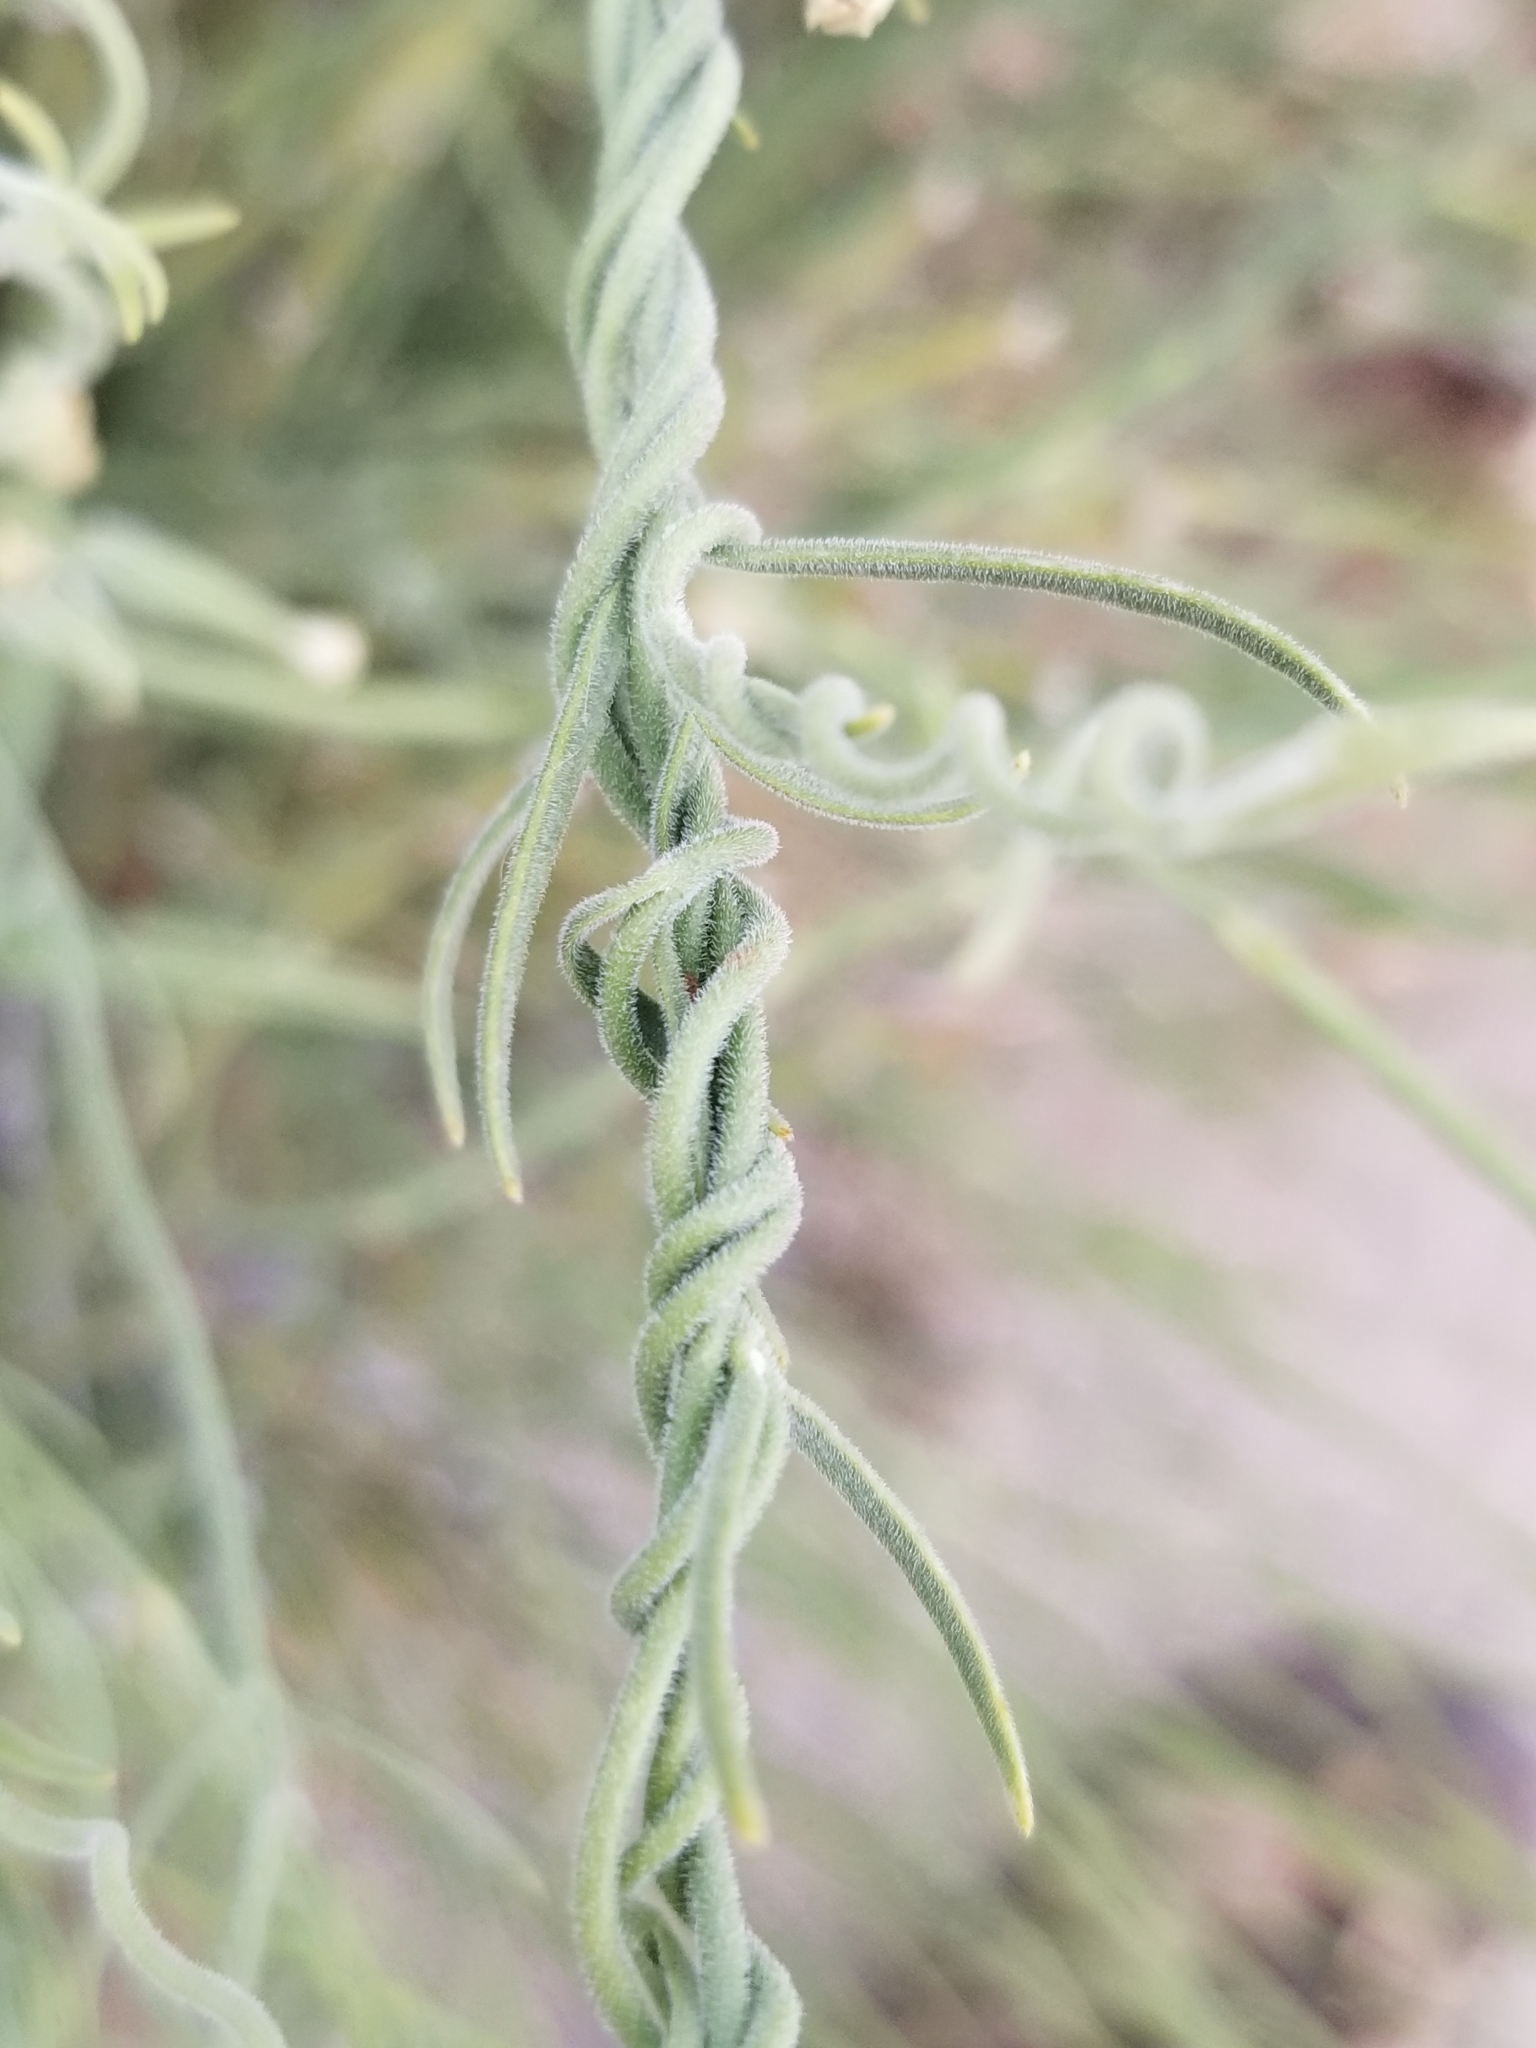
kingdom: Plantae
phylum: Tracheophyta
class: Magnoliopsida
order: Gentianales
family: Apocynaceae
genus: Funastrum
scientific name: Funastrum hirtellum
